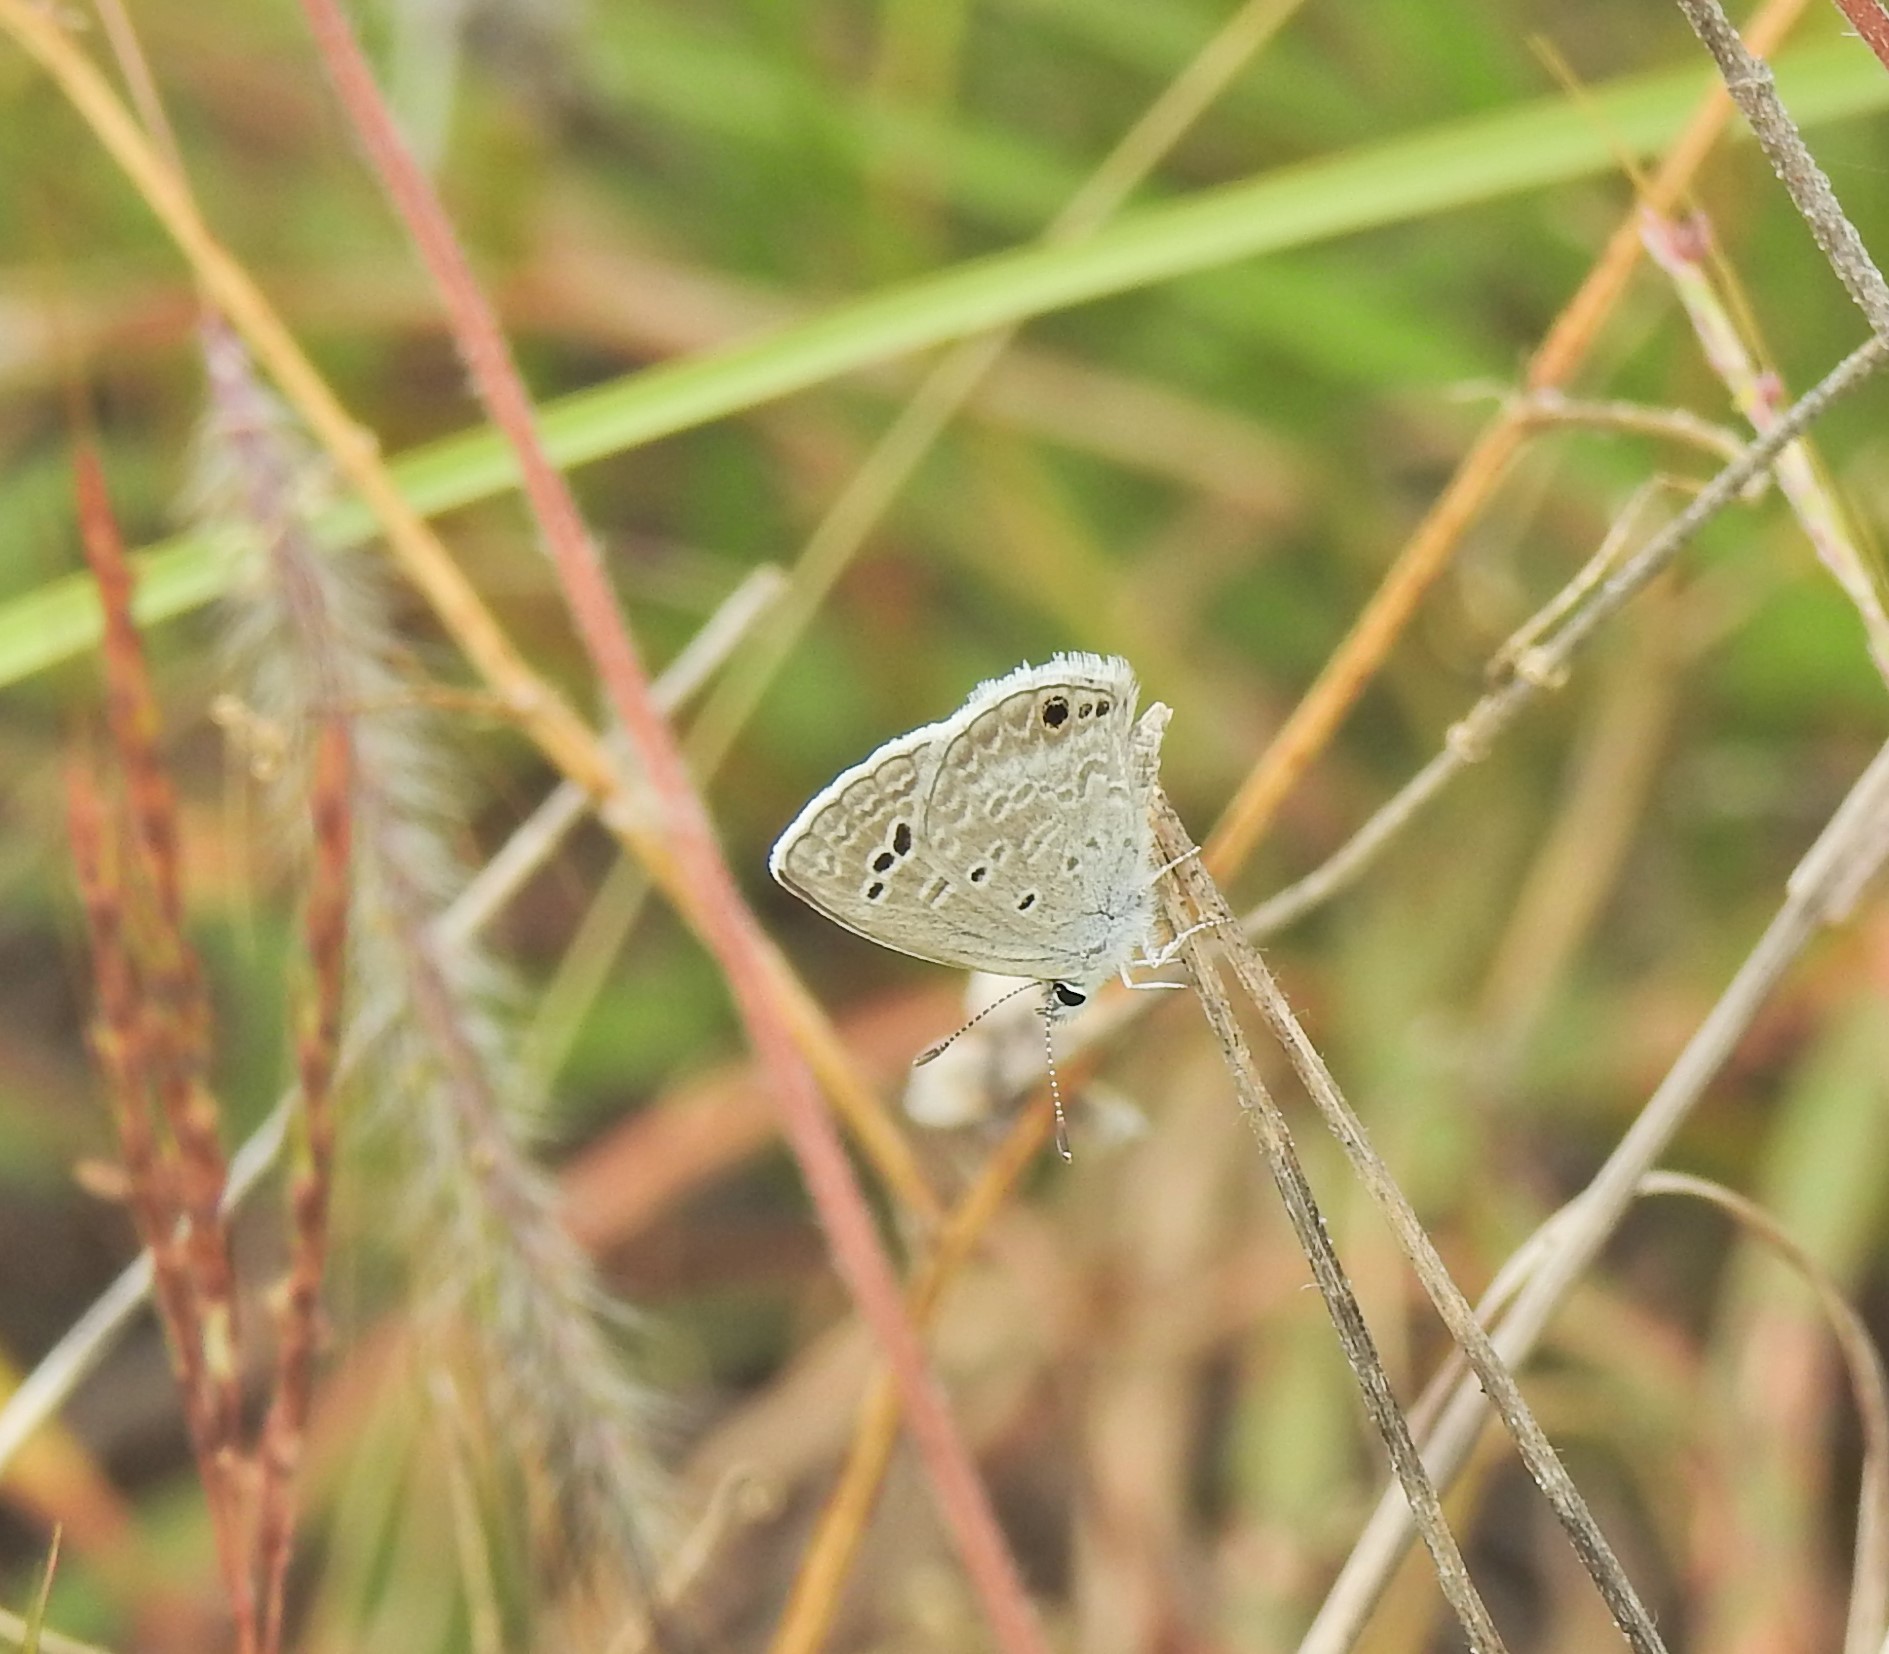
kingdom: Animalia
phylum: Arthropoda
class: Insecta
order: Lepidoptera
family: Lycaenidae
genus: Echinargus
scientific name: Echinargus isola
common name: Reakirt's blue
